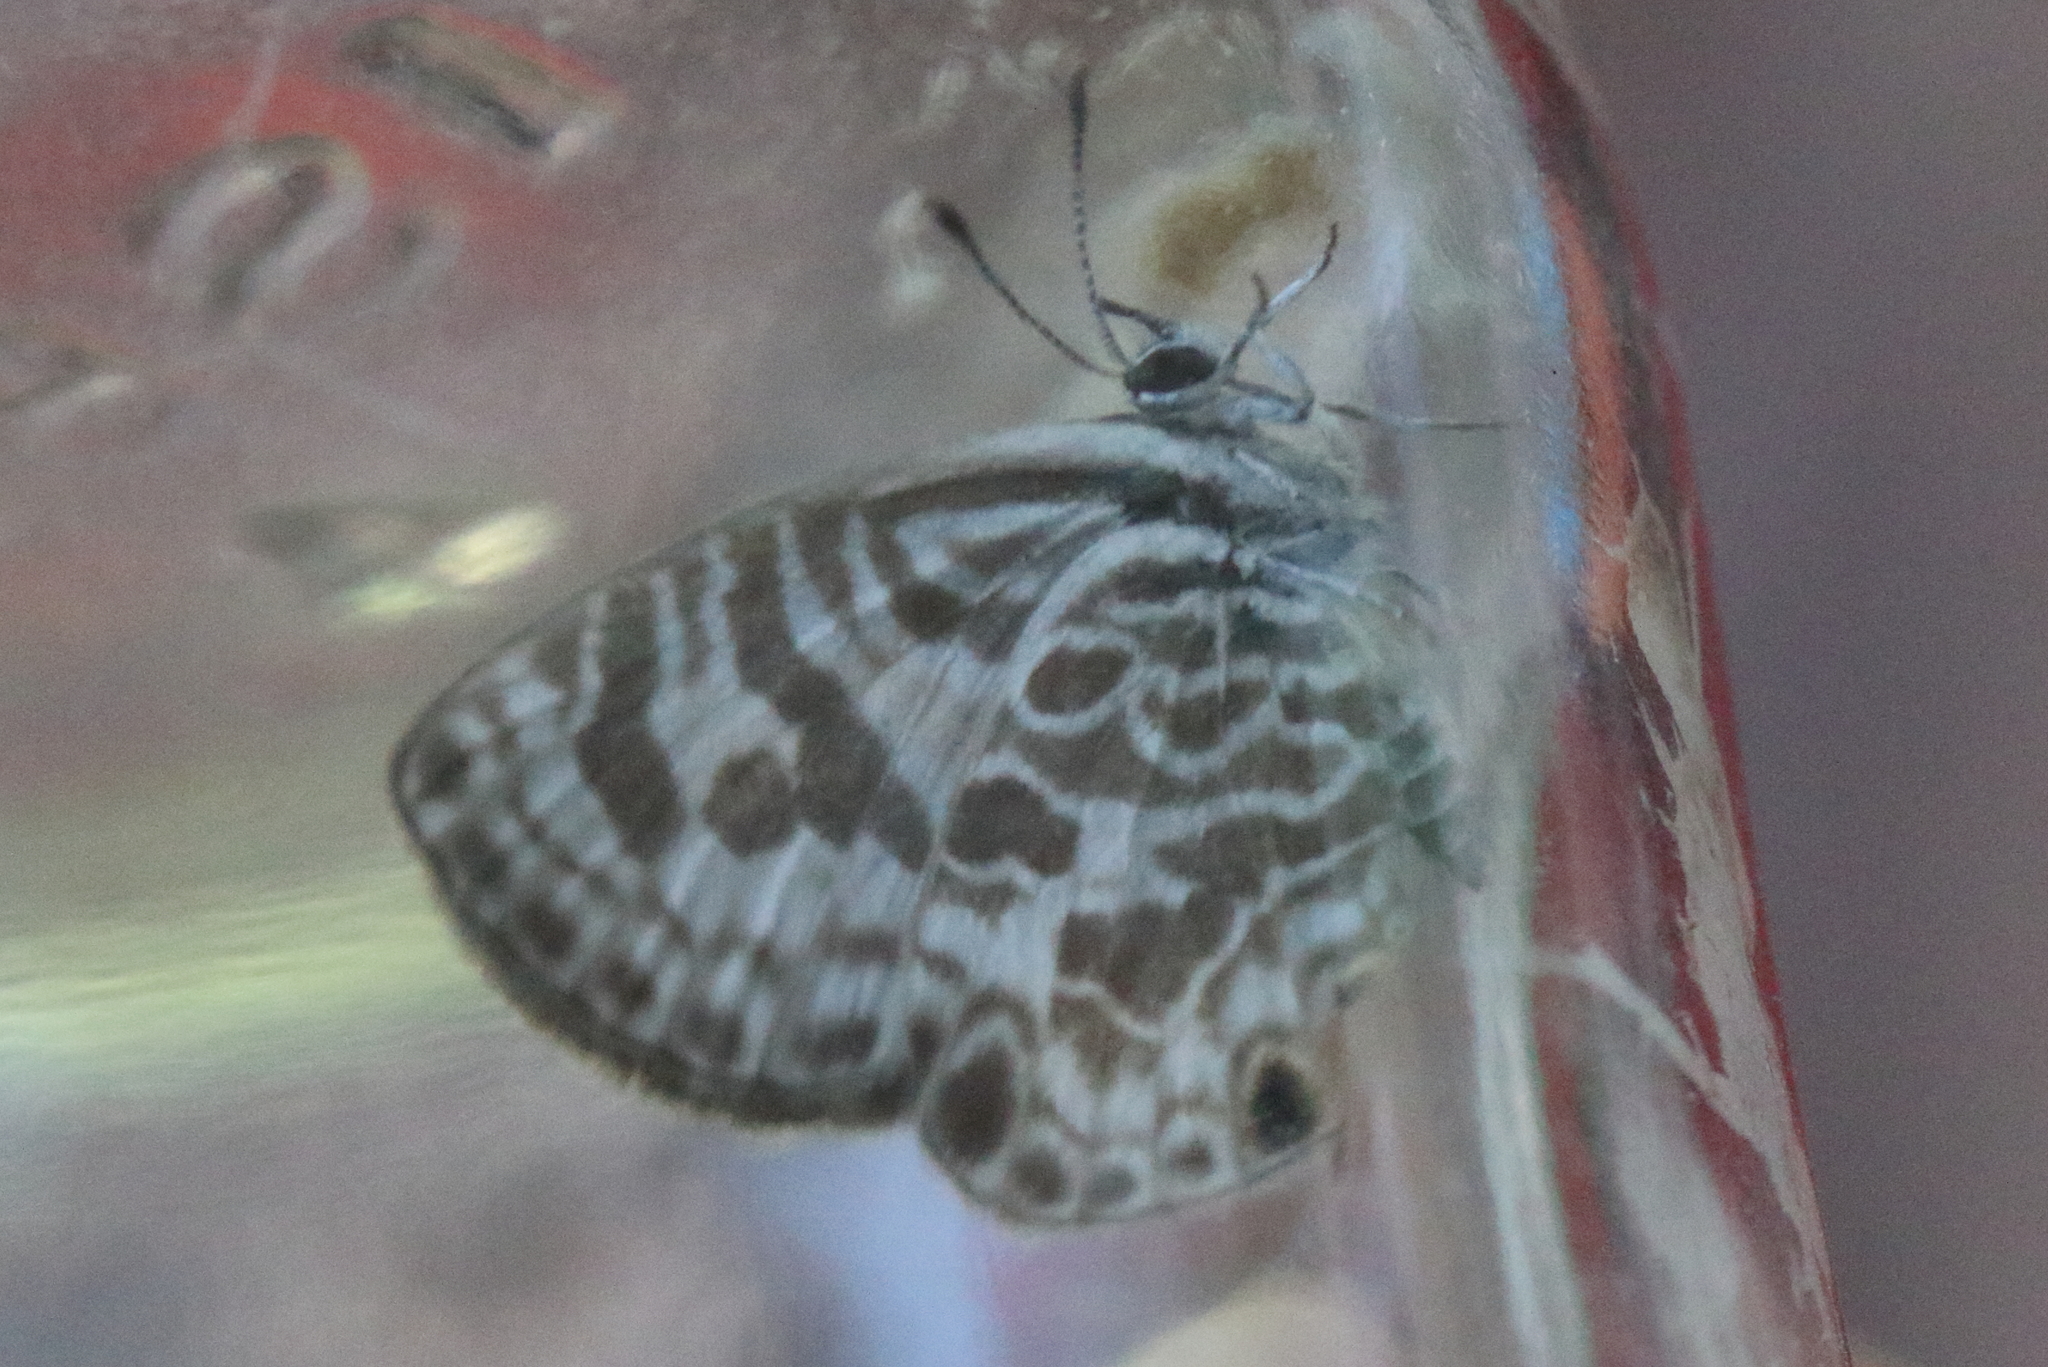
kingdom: Animalia
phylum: Arthropoda
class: Insecta
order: Lepidoptera
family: Lycaenidae
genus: Leptotes
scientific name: Leptotes plinius
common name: Zebra blue
